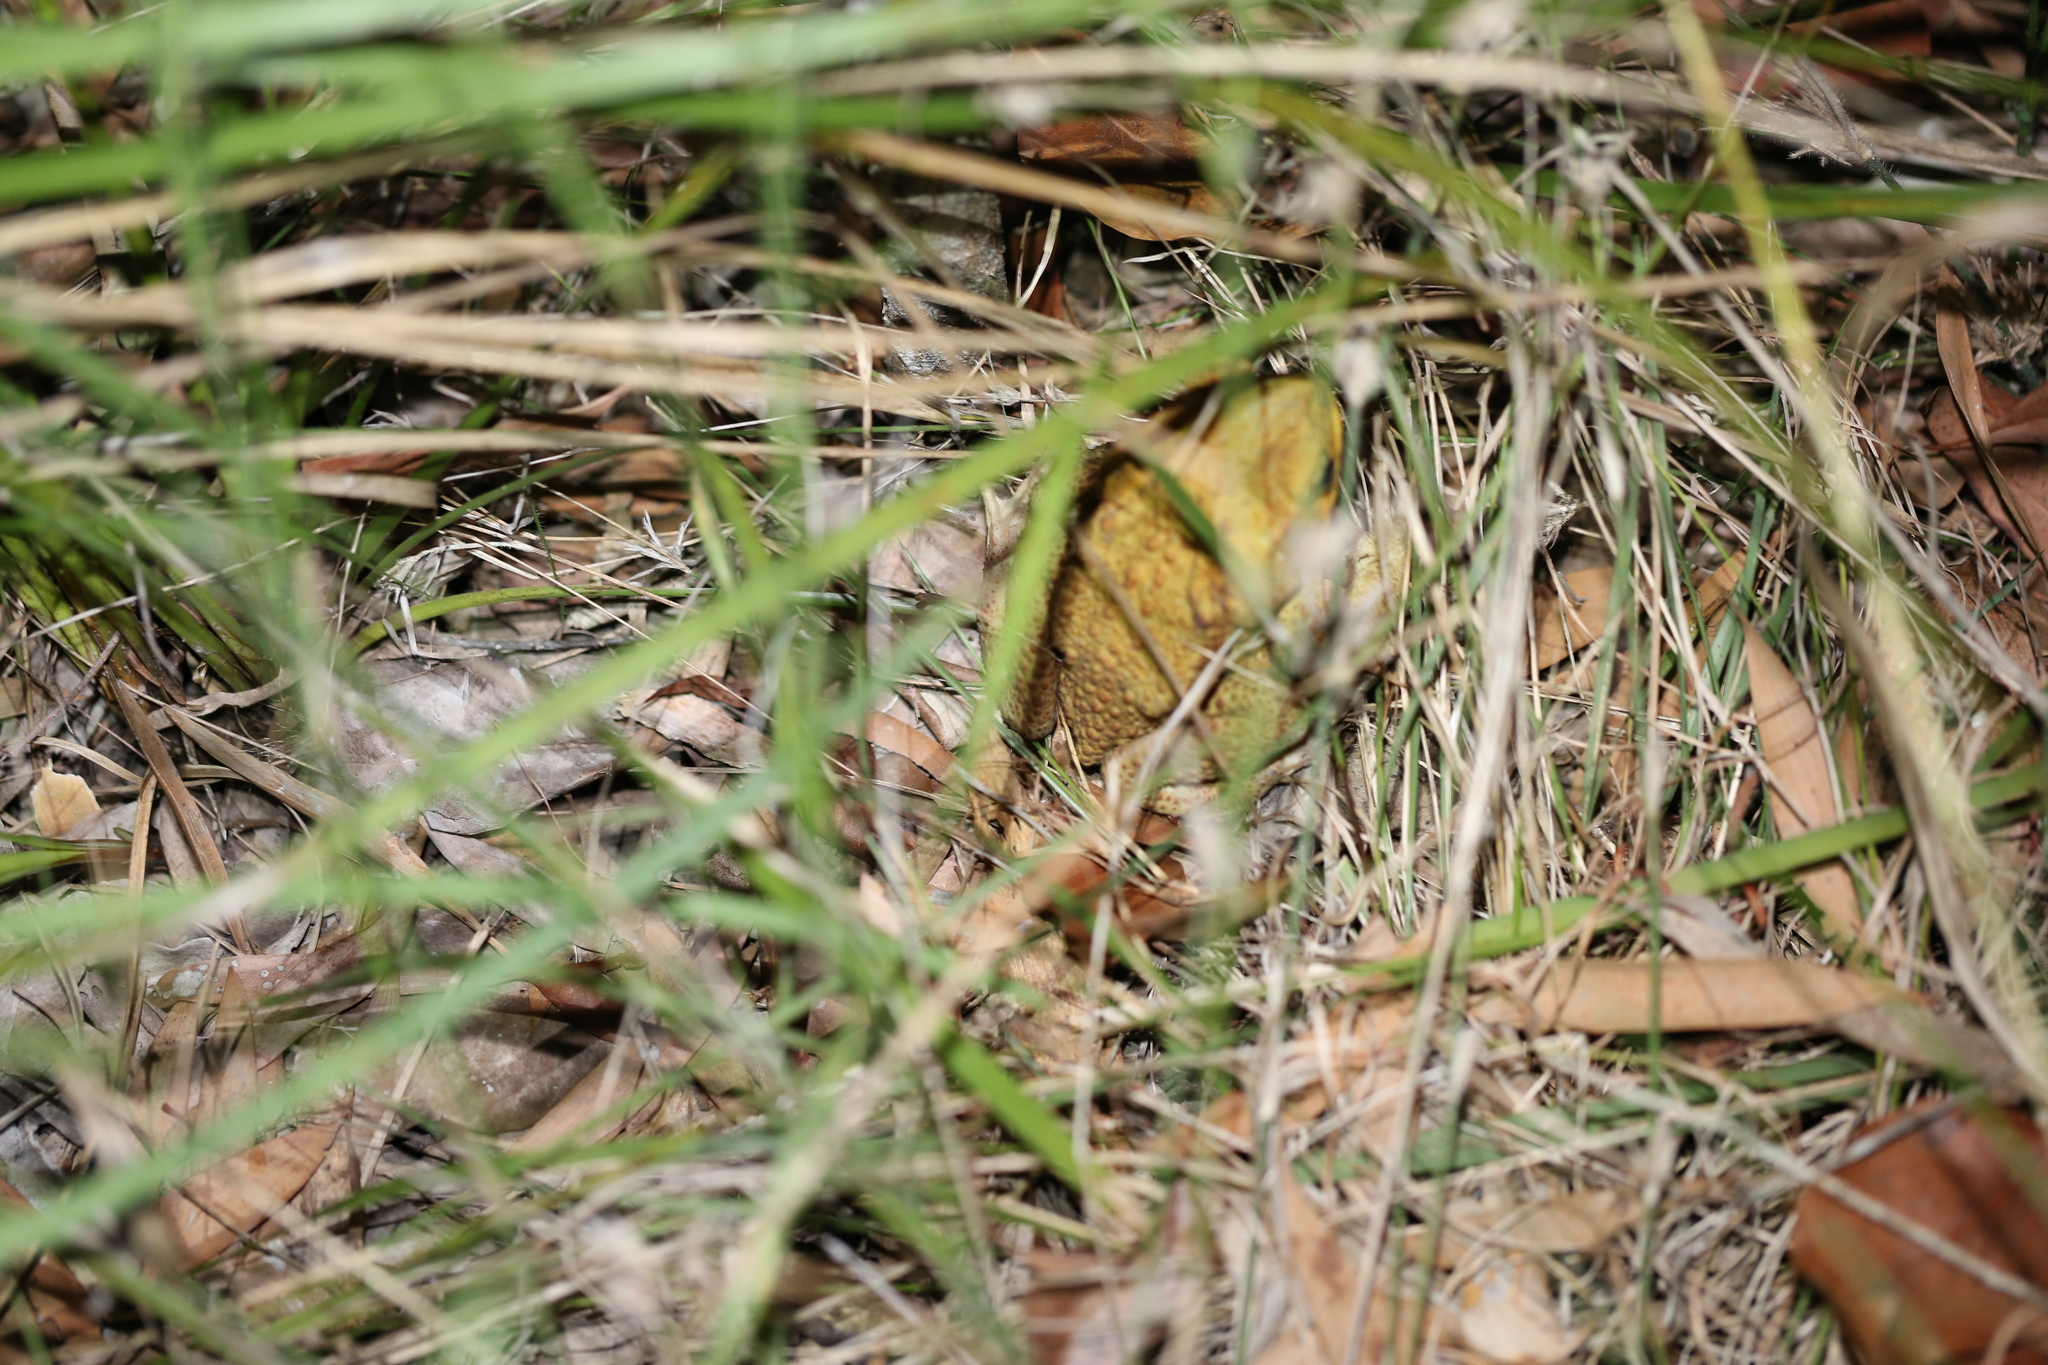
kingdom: Animalia
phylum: Chordata
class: Amphibia
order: Anura
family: Bufonidae
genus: Rhinella
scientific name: Rhinella marina
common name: Cane toad
